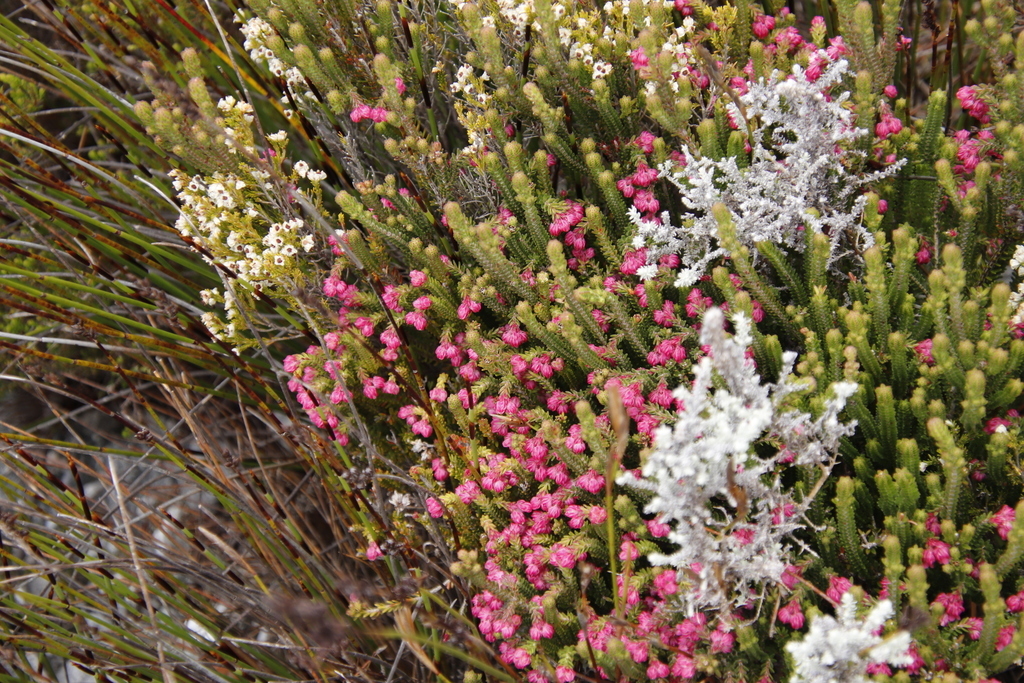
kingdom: Plantae
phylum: Tracheophyta
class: Magnoliopsida
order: Ericales
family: Ericaceae
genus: Erica
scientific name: Erica tegulifolia
